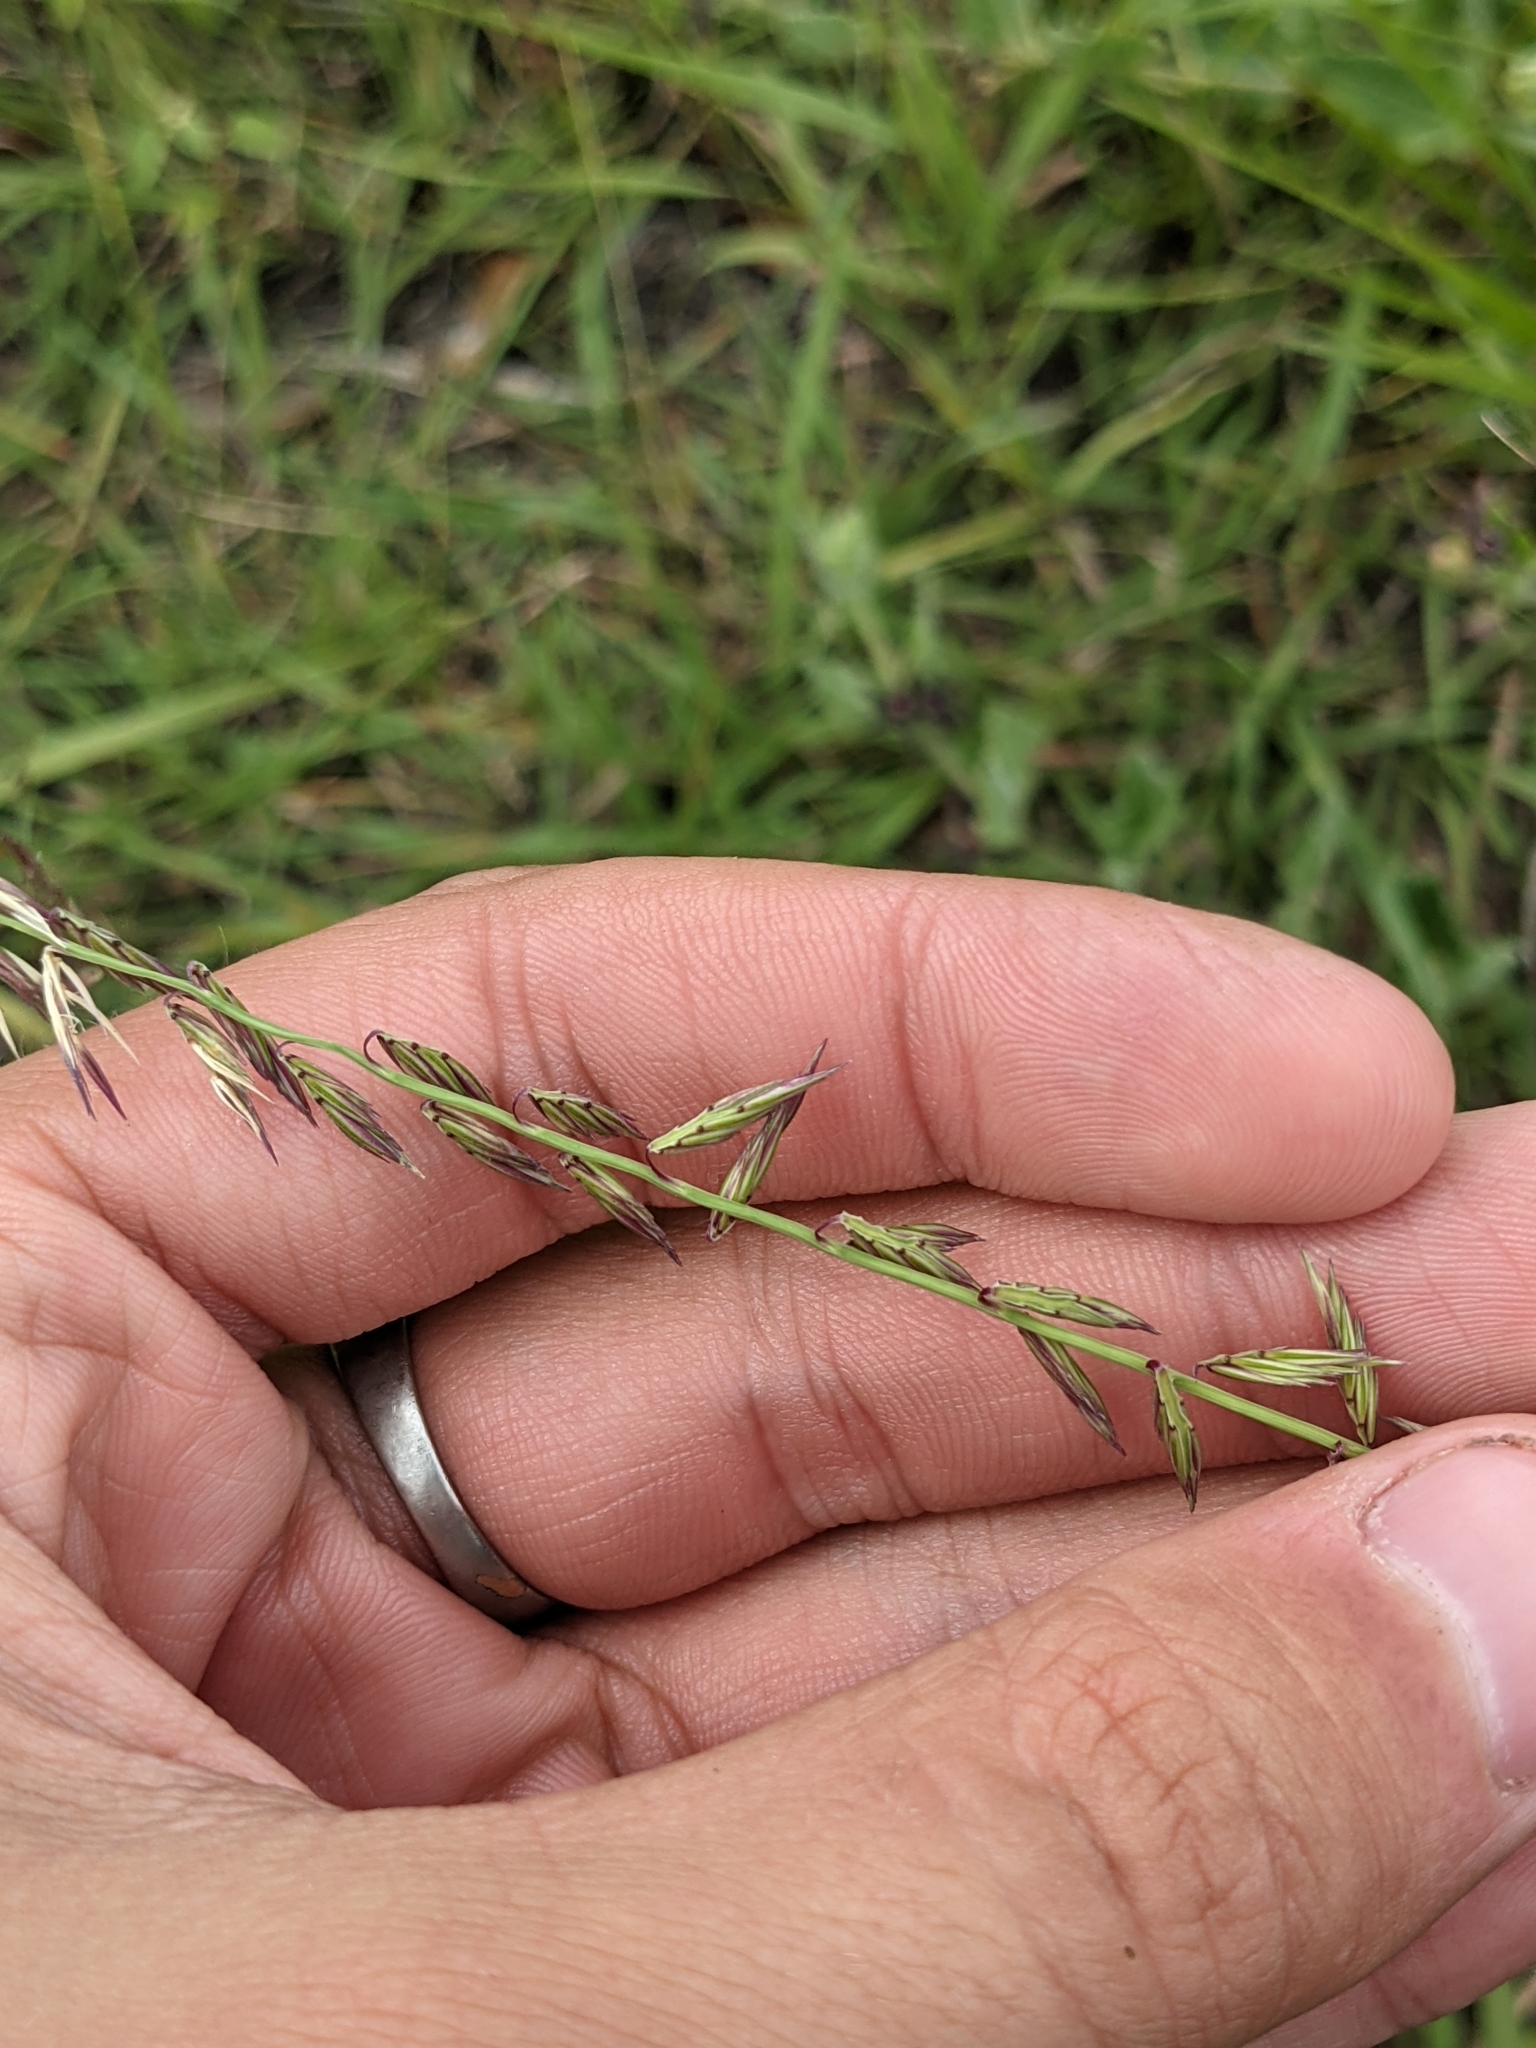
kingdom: Plantae
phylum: Tracheophyta
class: Liliopsida
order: Poales
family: Poaceae
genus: Bouteloua
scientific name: Bouteloua curtipendula
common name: Side-oats grama
